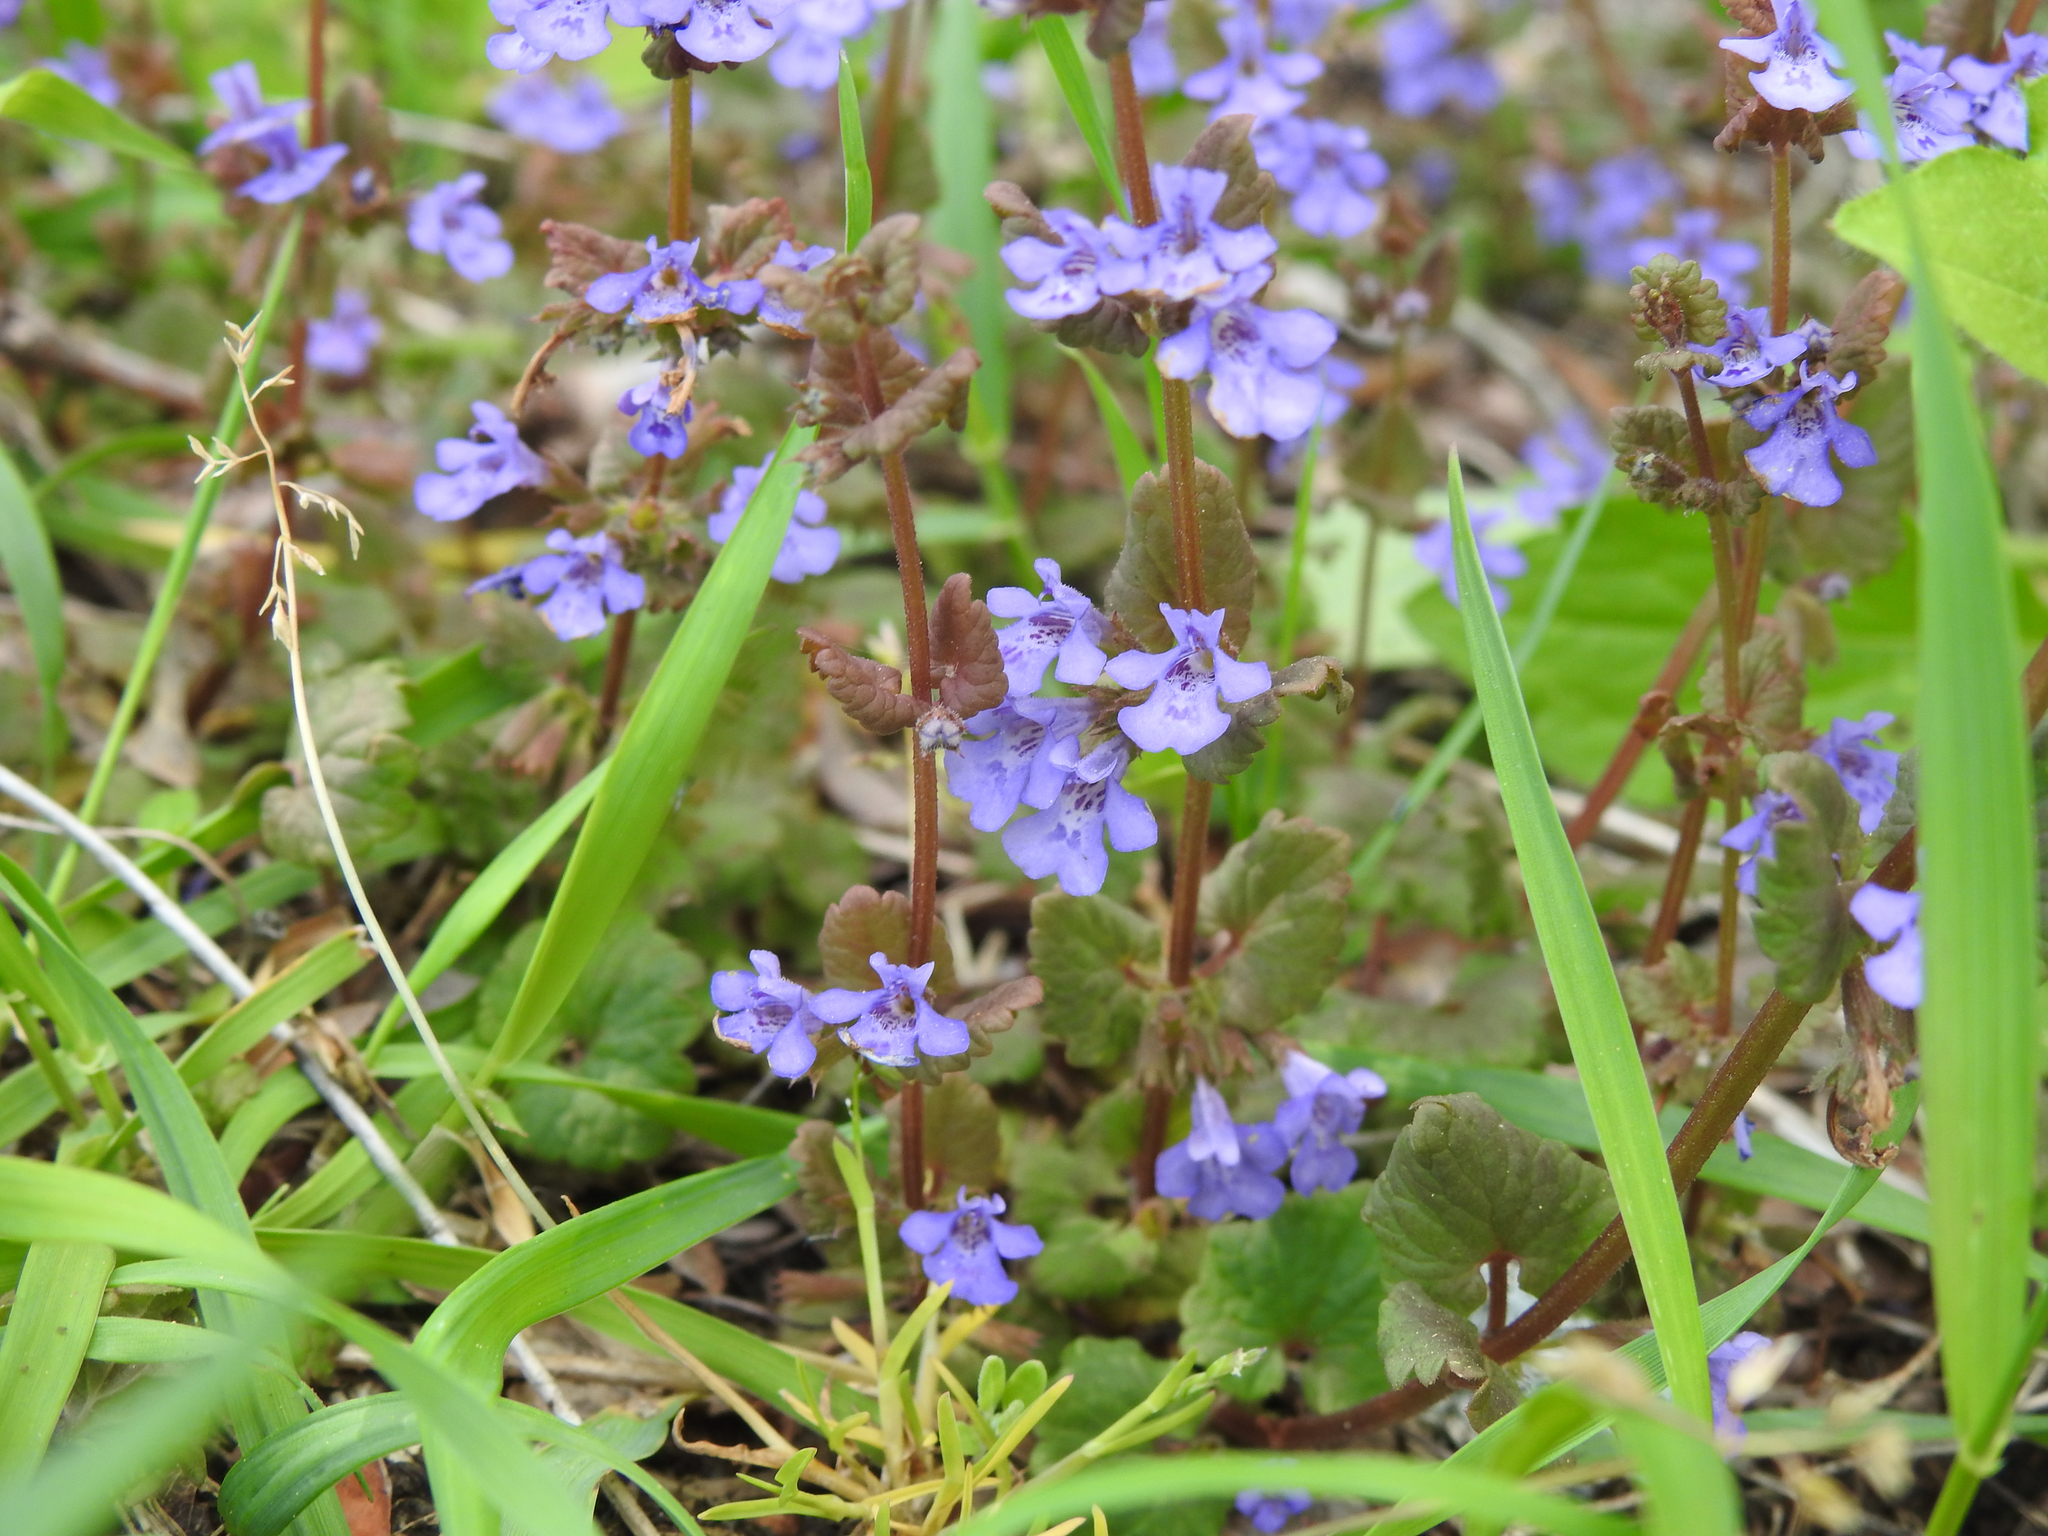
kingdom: Plantae
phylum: Tracheophyta
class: Magnoliopsida
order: Lamiales
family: Lamiaceae
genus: Glechoma
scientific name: Glechoma hederacea
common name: Ground ivy
